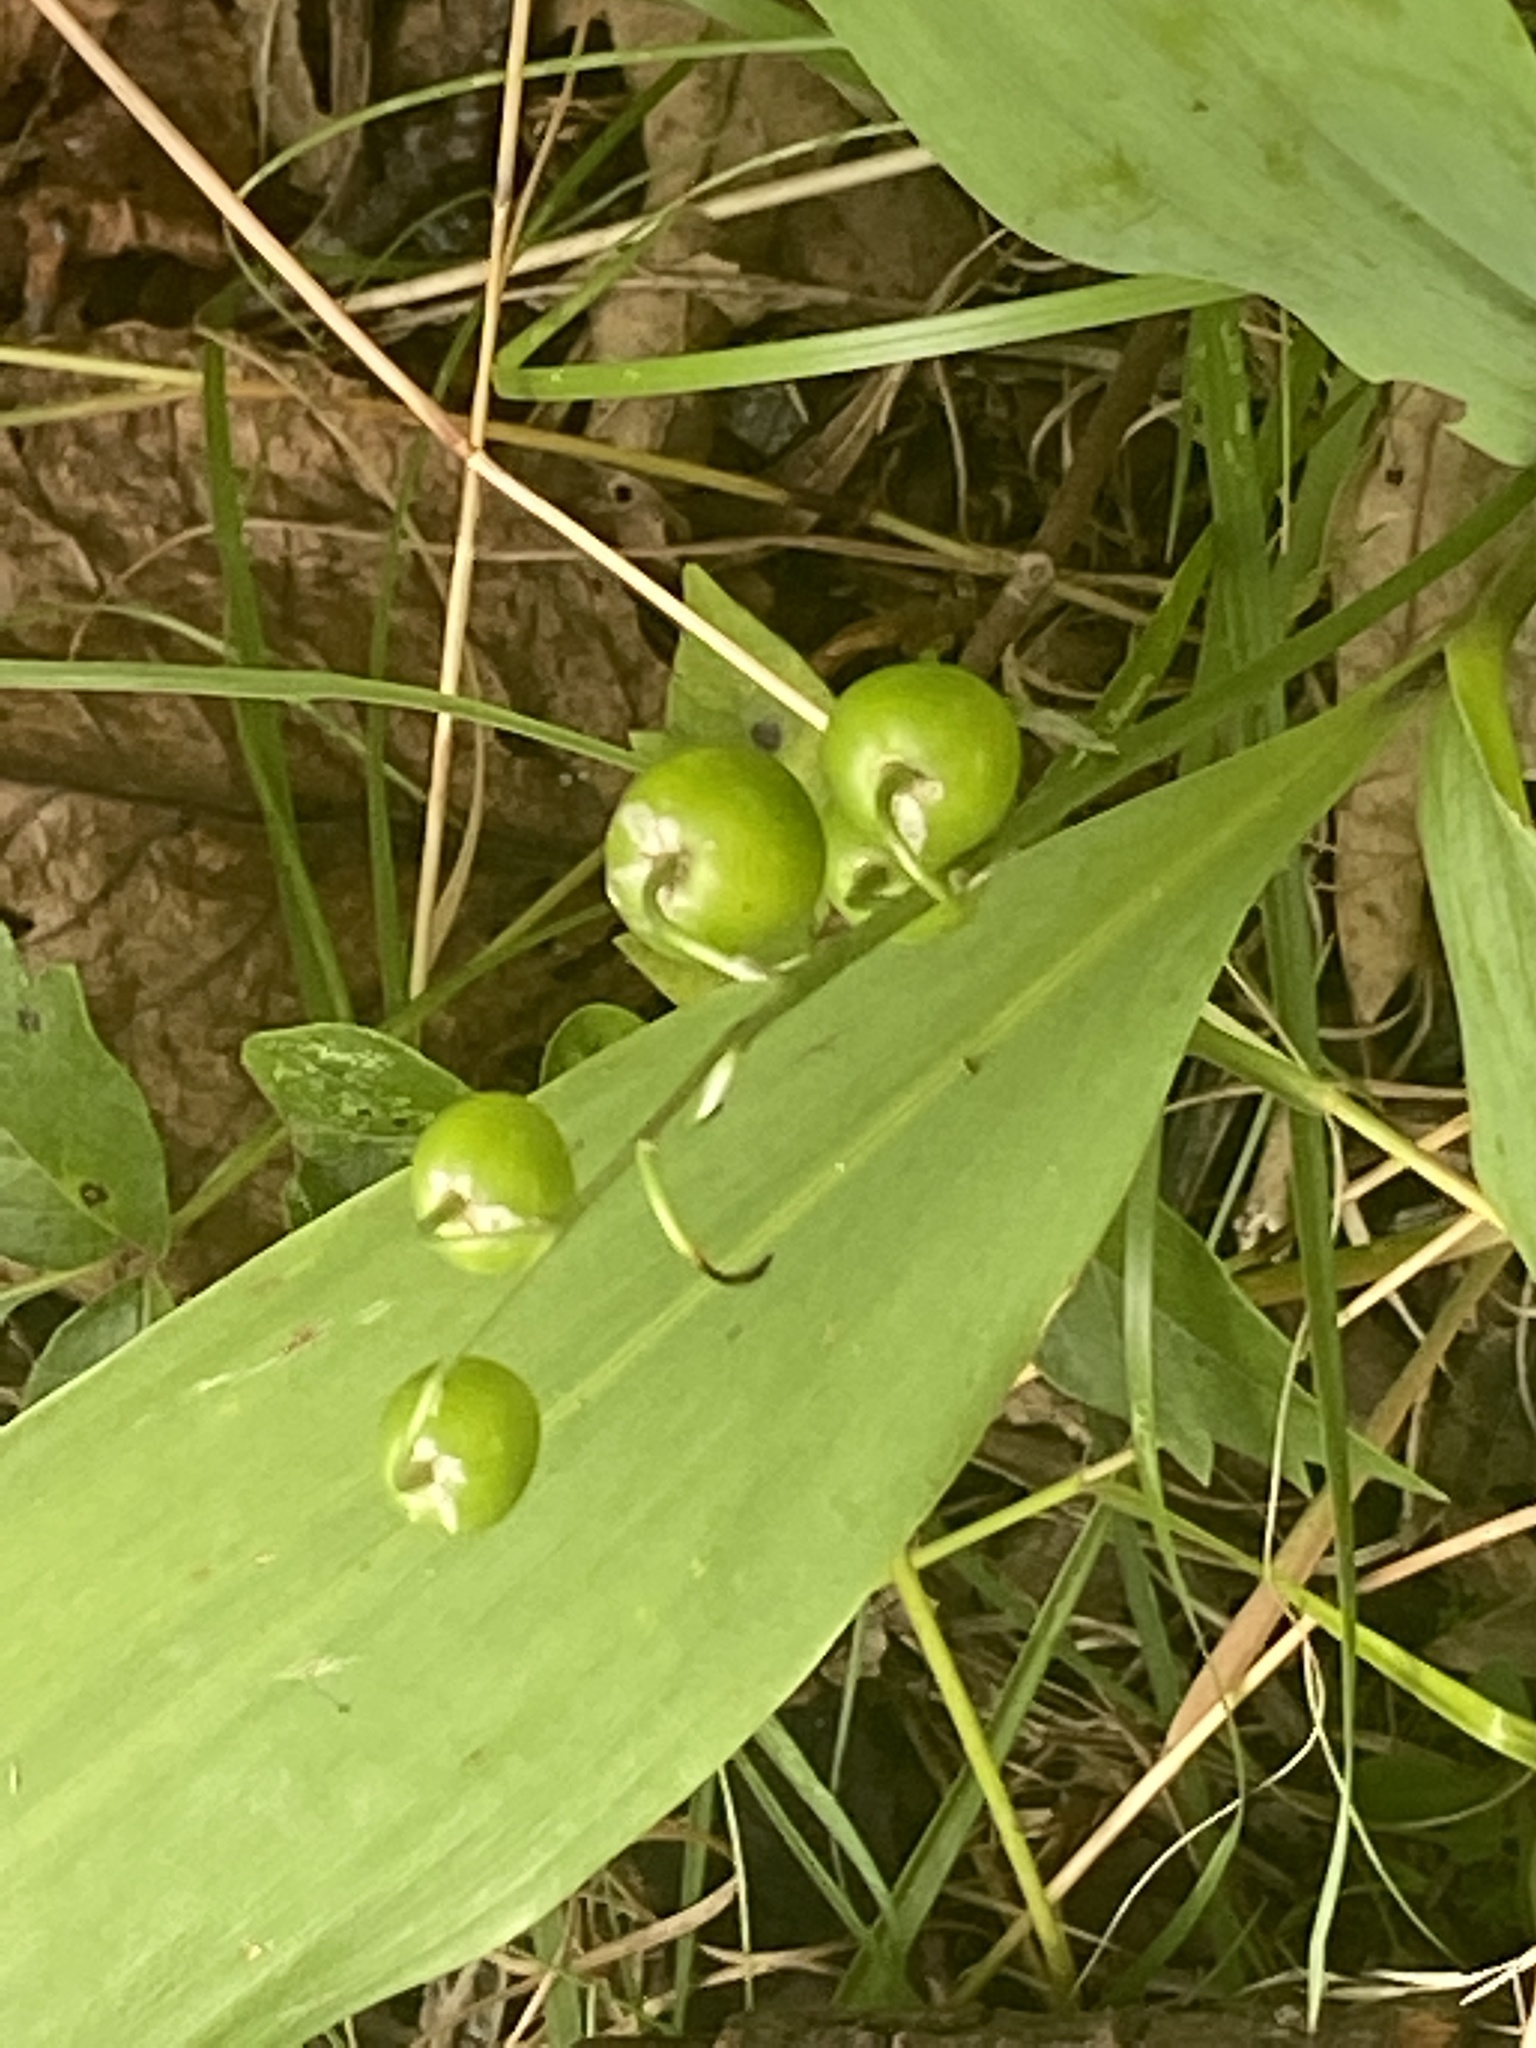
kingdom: Plantae
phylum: Tracheophyta
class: Liliopsida
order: Asparagales
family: Asparagaceae
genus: Convallaria
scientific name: Convallaria majalis
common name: Lily-of-the-valley
